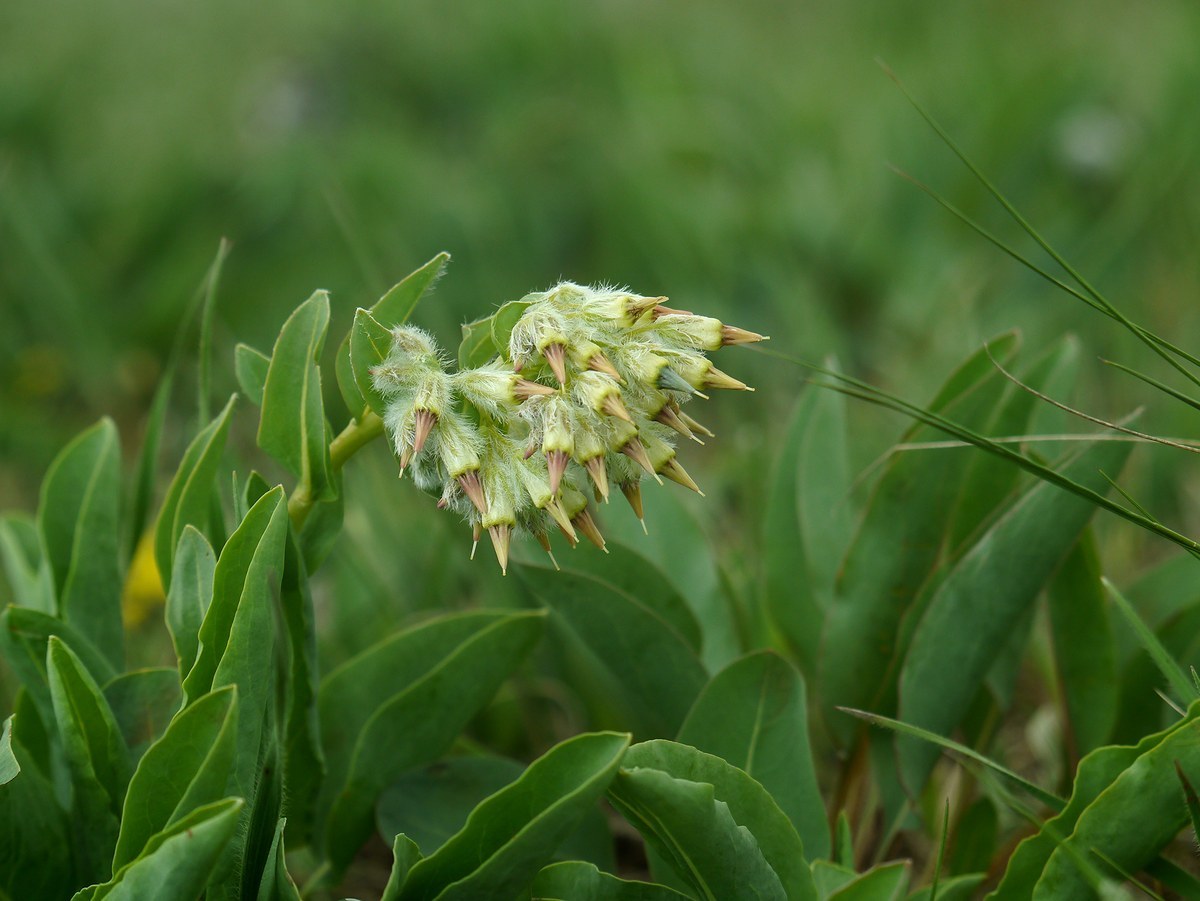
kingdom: Plantae
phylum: Tracheophyta
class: Magnoliopsida
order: Boraginales
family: Boraginaceae
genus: Rindera
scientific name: Rindera tetraspis
